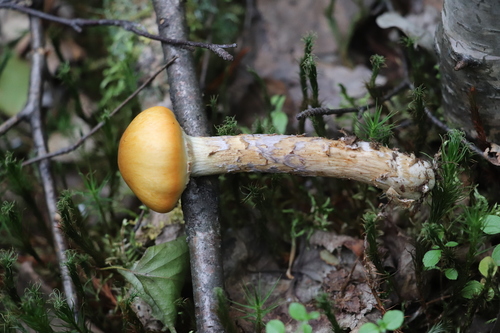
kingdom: Fungi
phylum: Basidiomycota
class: Agaricomycetes
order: Agaricales
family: Cortinariaceae
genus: Cortinarius
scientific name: Cortinarius trivialis
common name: Girdled webcap
